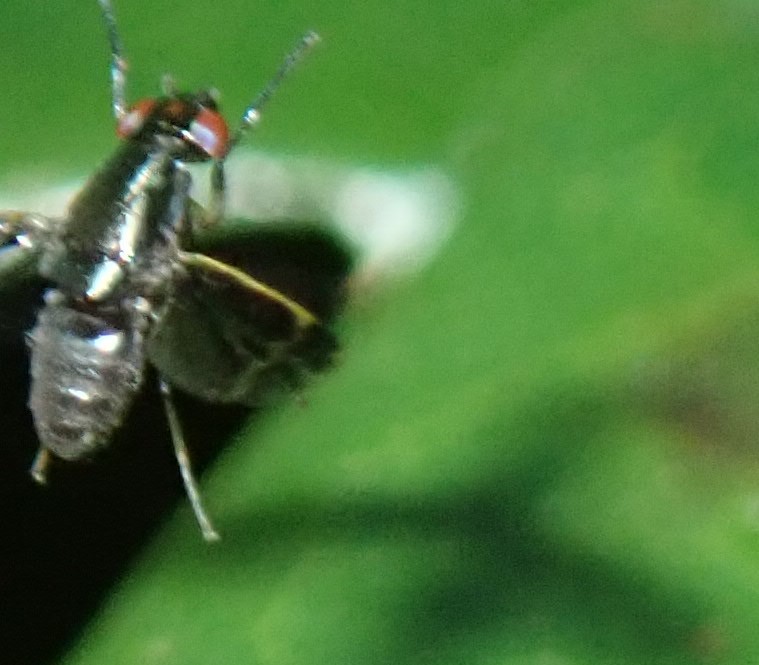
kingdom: Animalia
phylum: Arthropoda
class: Insecta
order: Diptera
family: Lauxaniidae
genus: Depressa
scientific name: Depressa albicosta
